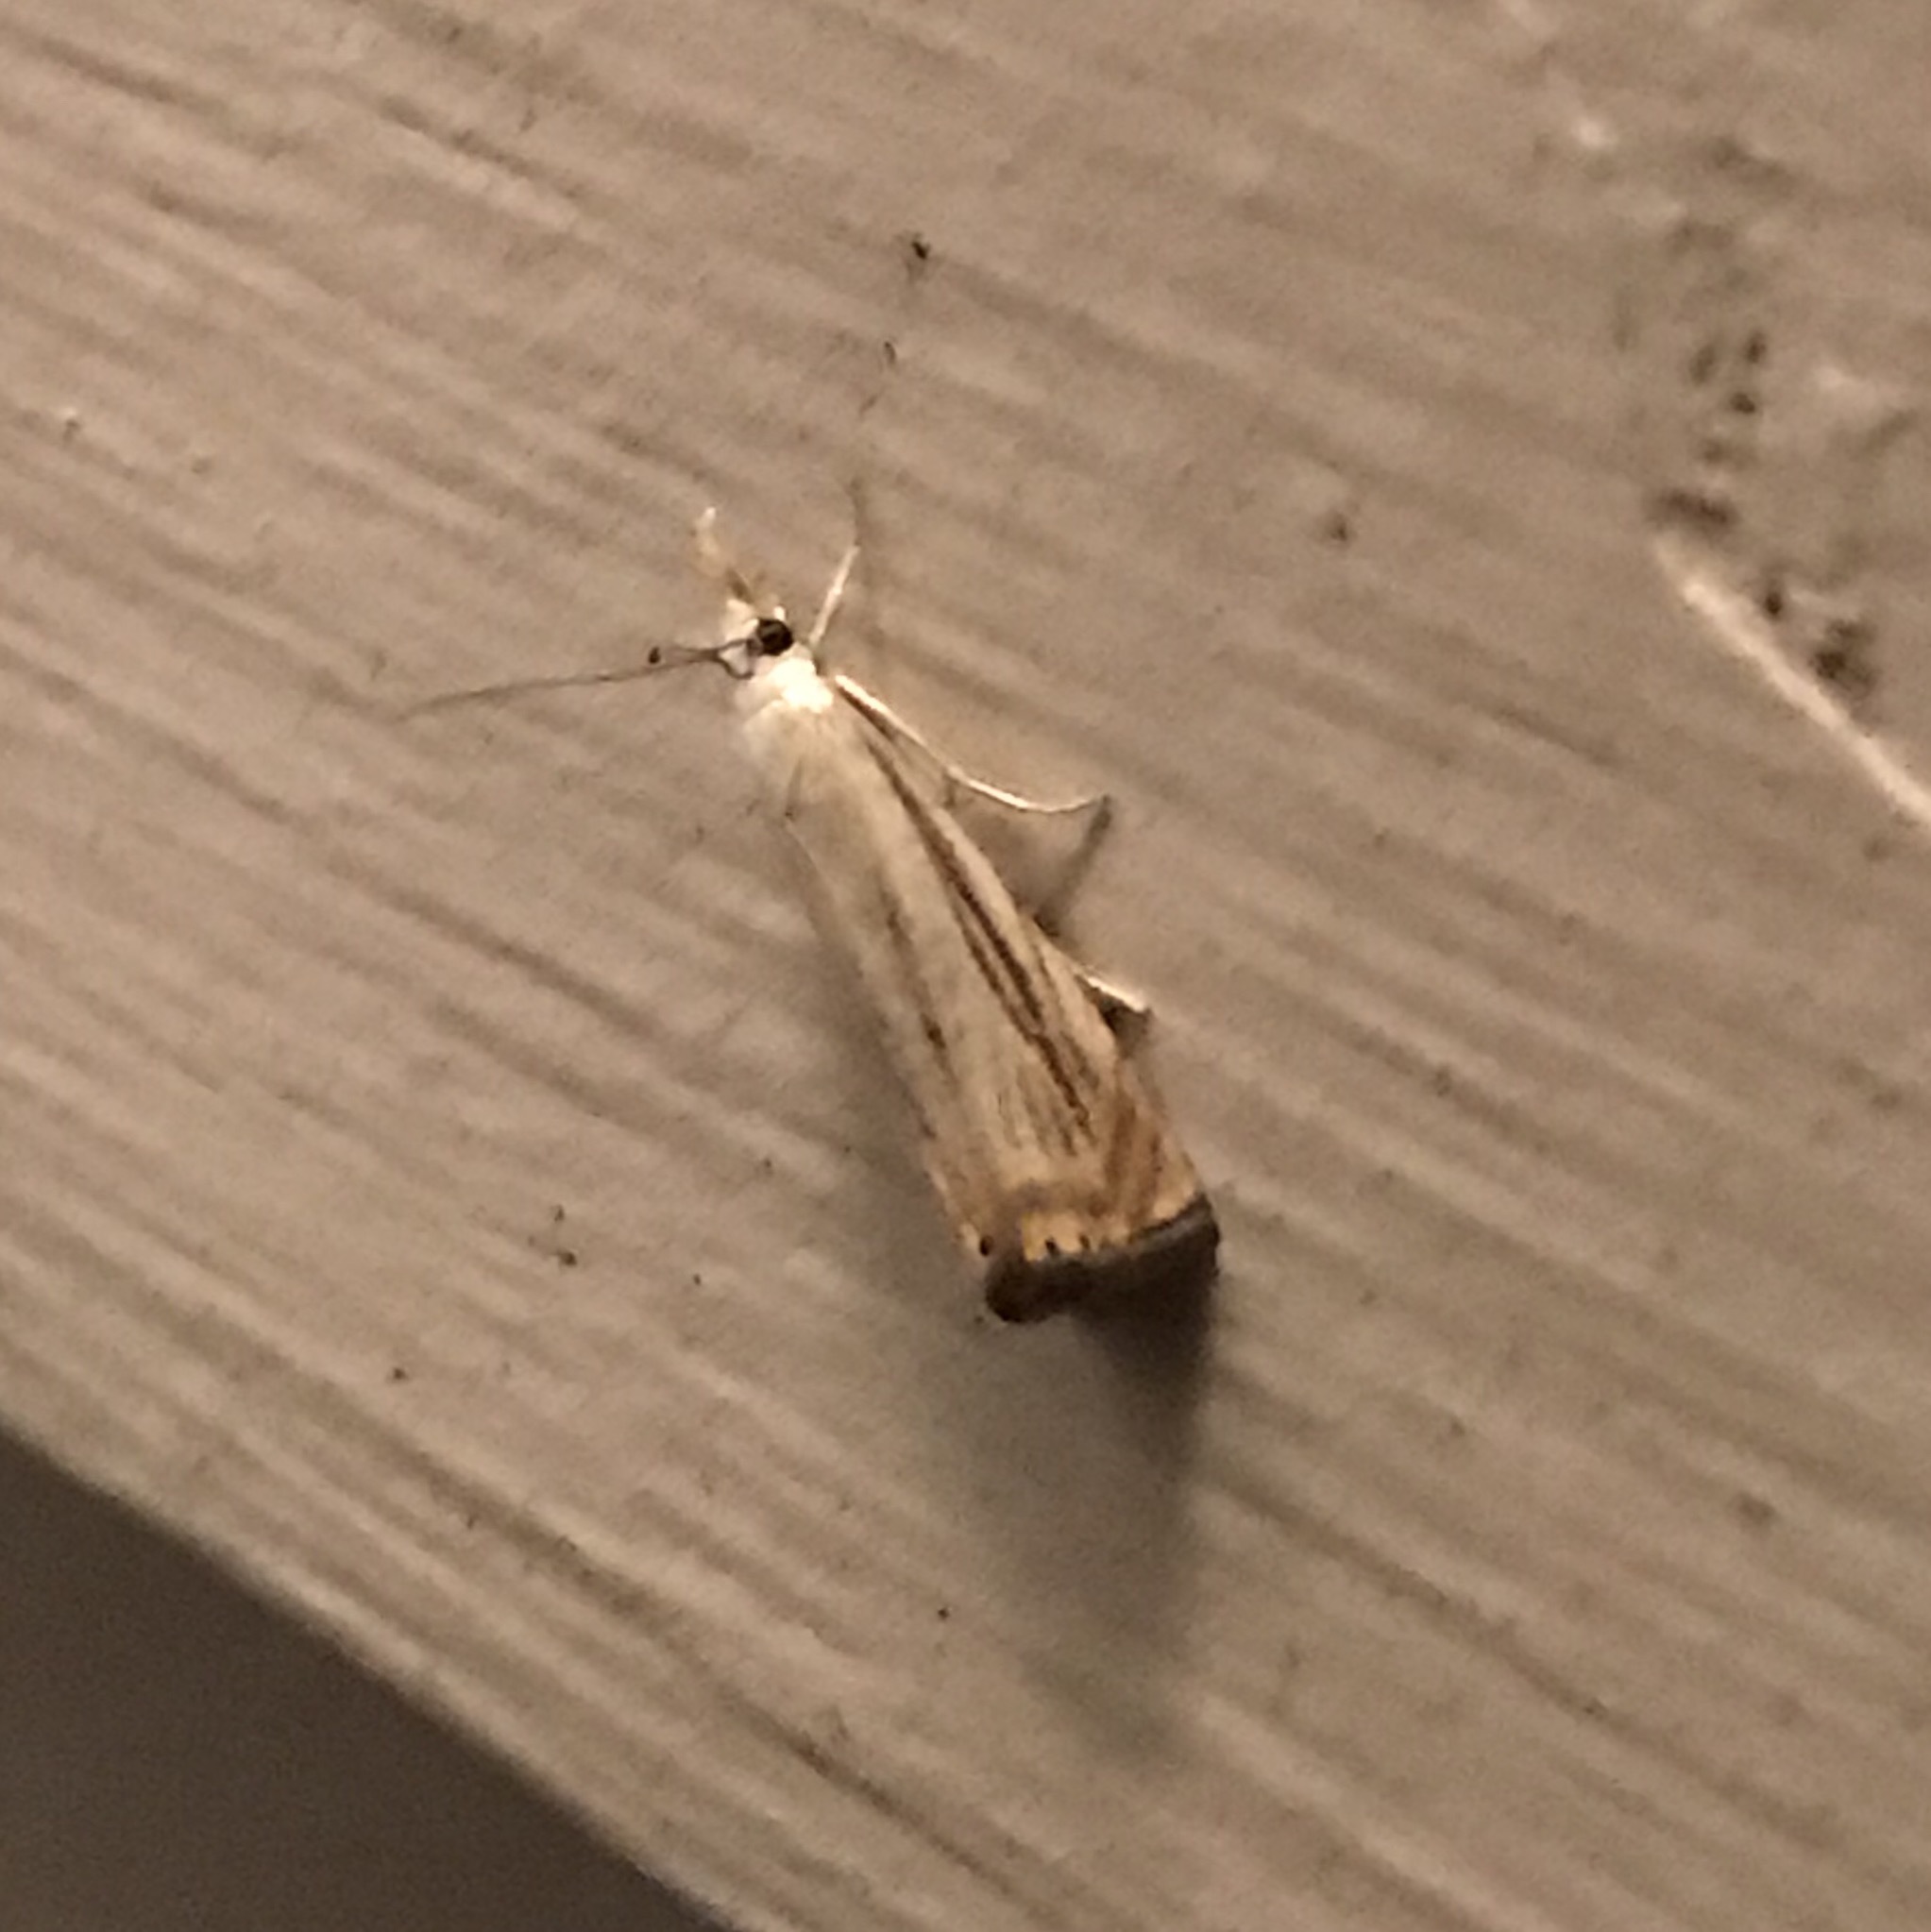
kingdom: Animalia
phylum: Arthropoda
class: Insecta
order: Lepidoptera
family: Crambidae
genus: Chrysoteuchia
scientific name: Chrysoteuchia topiarius
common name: Topiary grass-veneer
